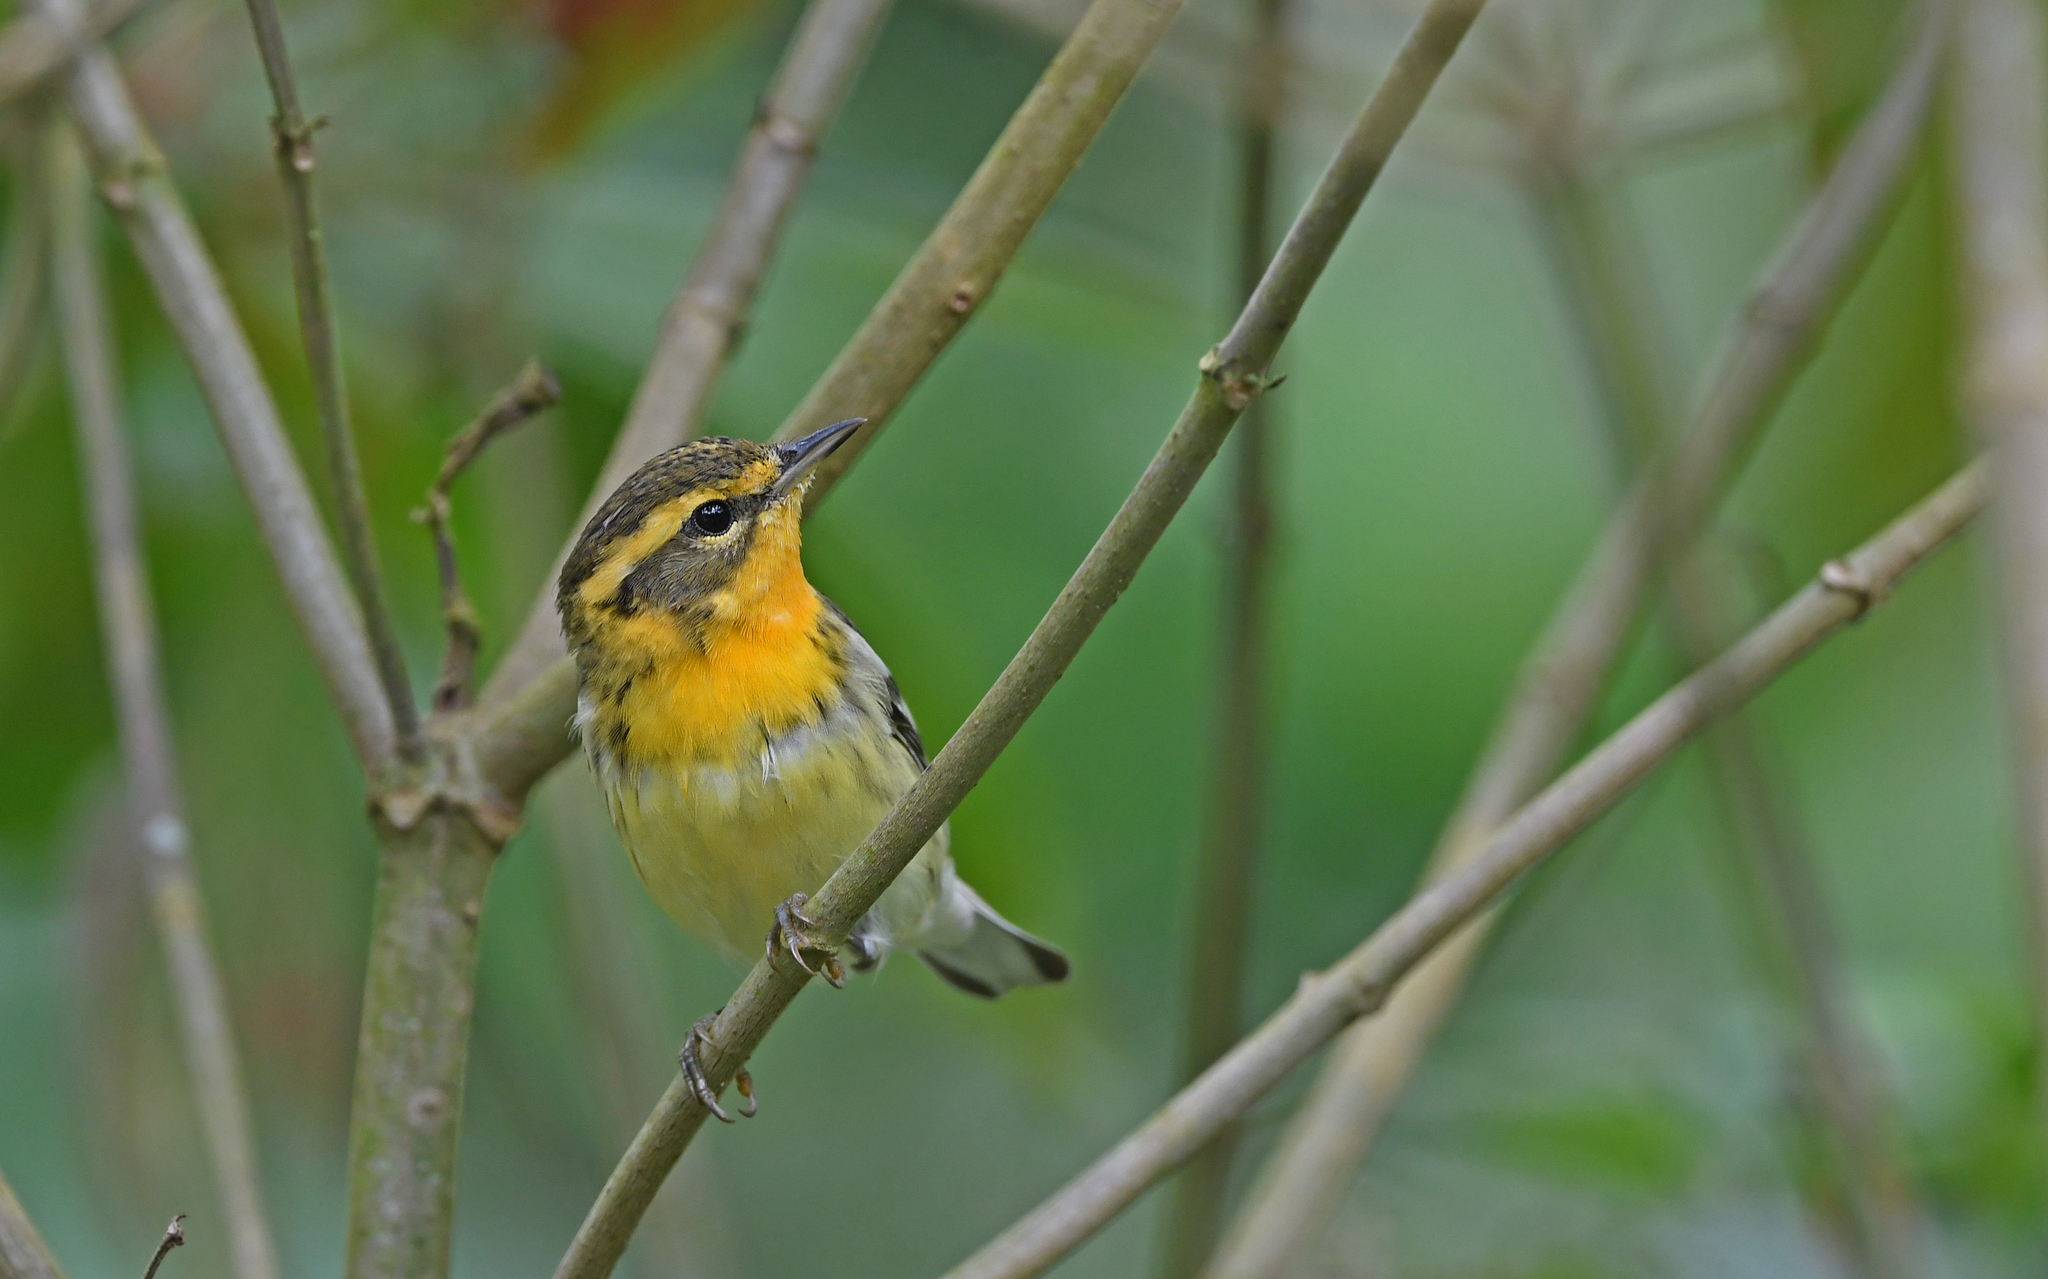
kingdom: Animalia
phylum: Chordata
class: Aves
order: Passeriformes
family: Parulidae
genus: Setophaga
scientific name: Setophaga fusca
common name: Blackburnian warbler
